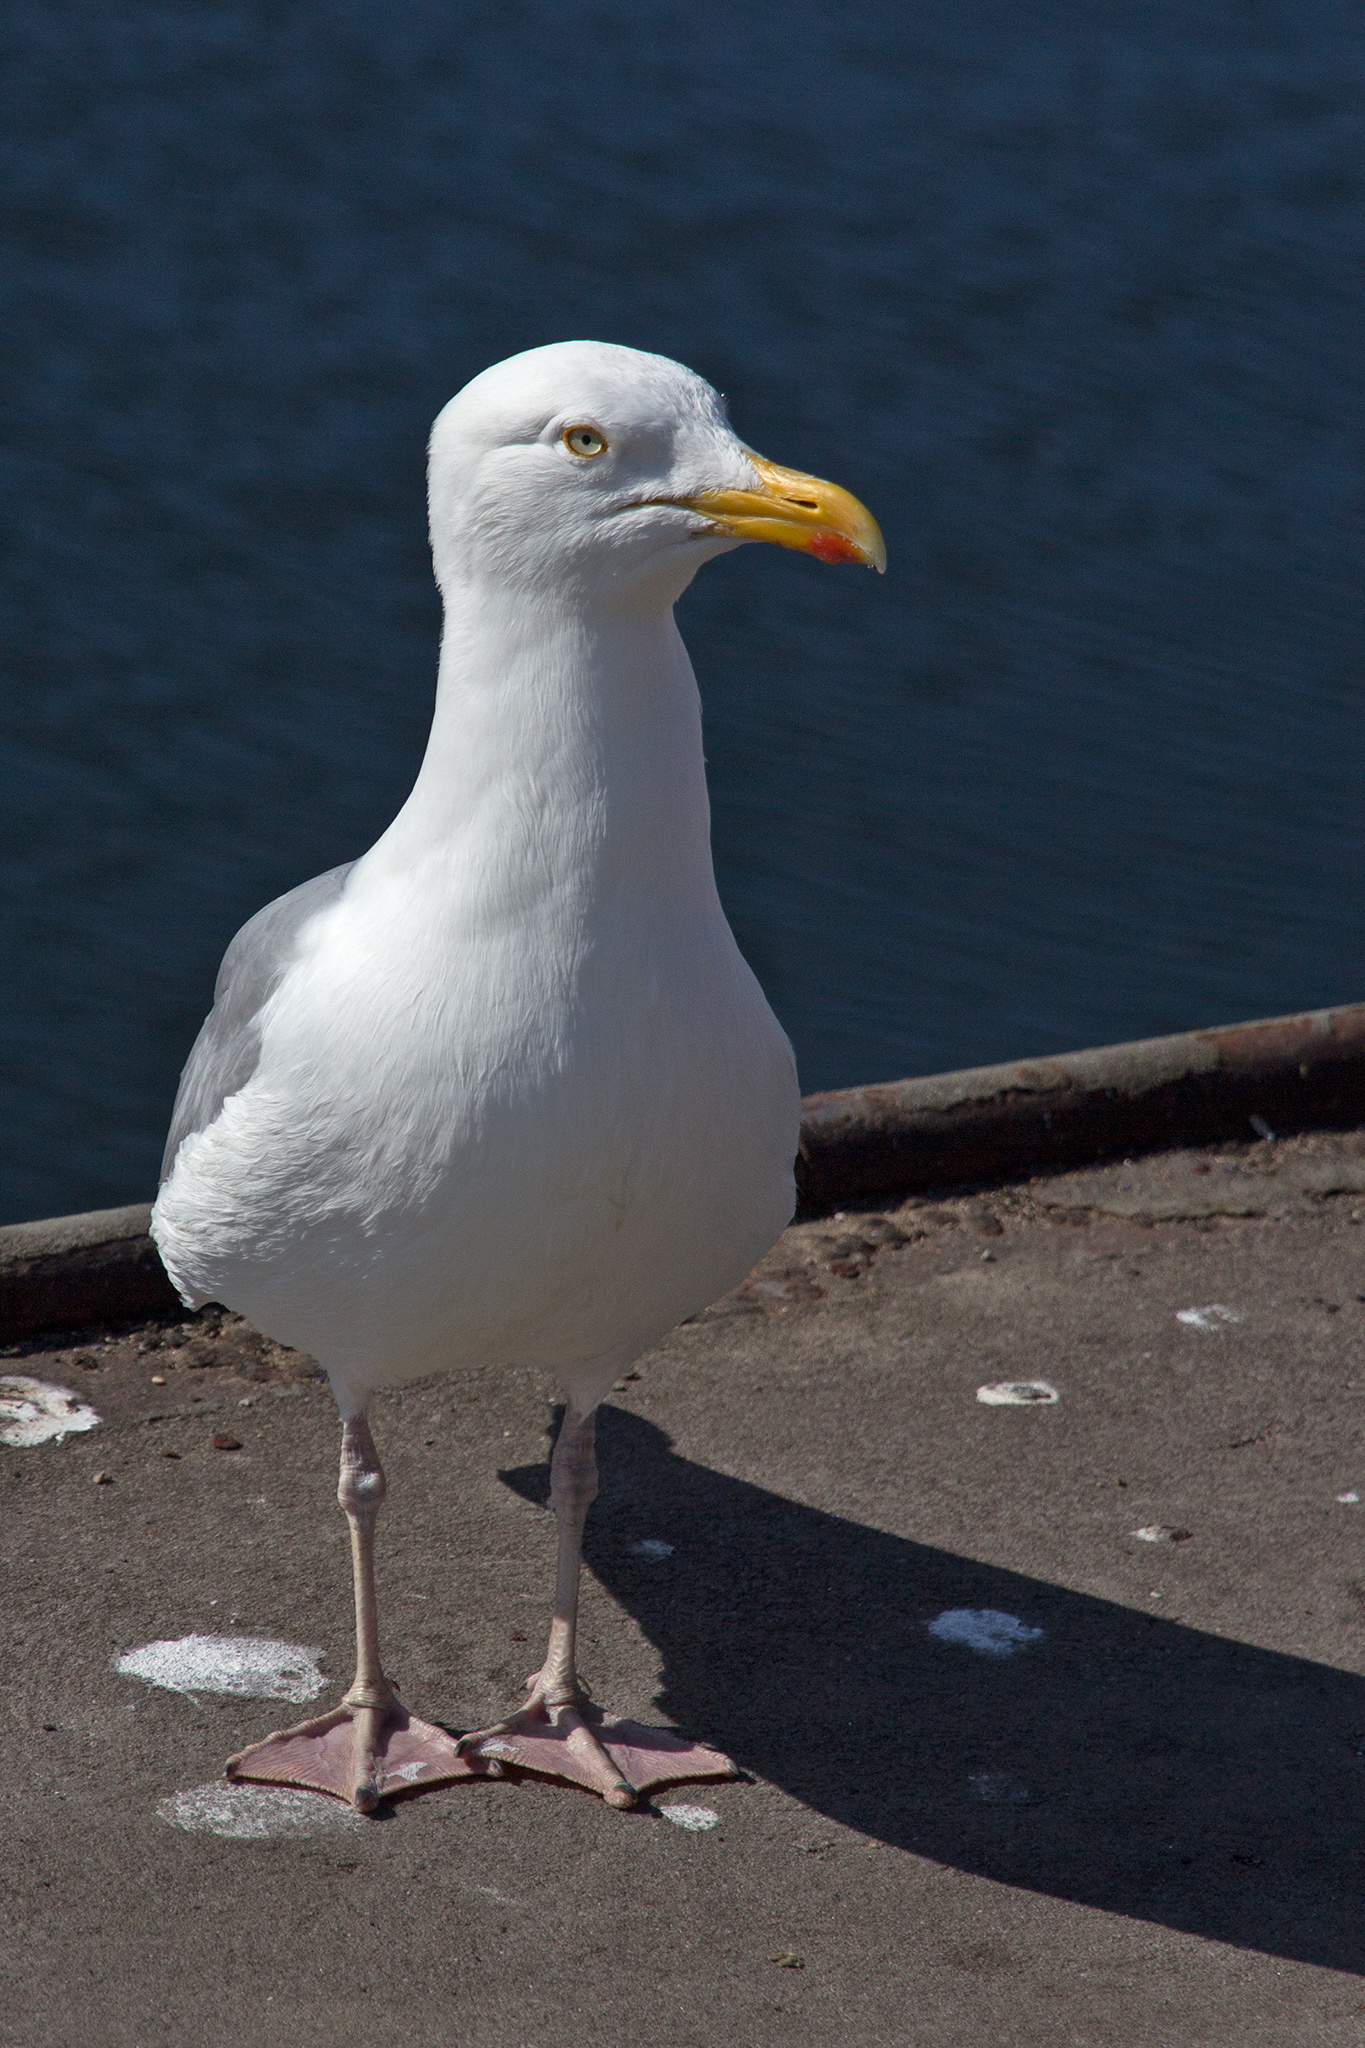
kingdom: Animalia
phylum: Chordata
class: Aves
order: Charadriiformes
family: Laridae
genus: Larus
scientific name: Larus argentatus
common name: Herring gull
